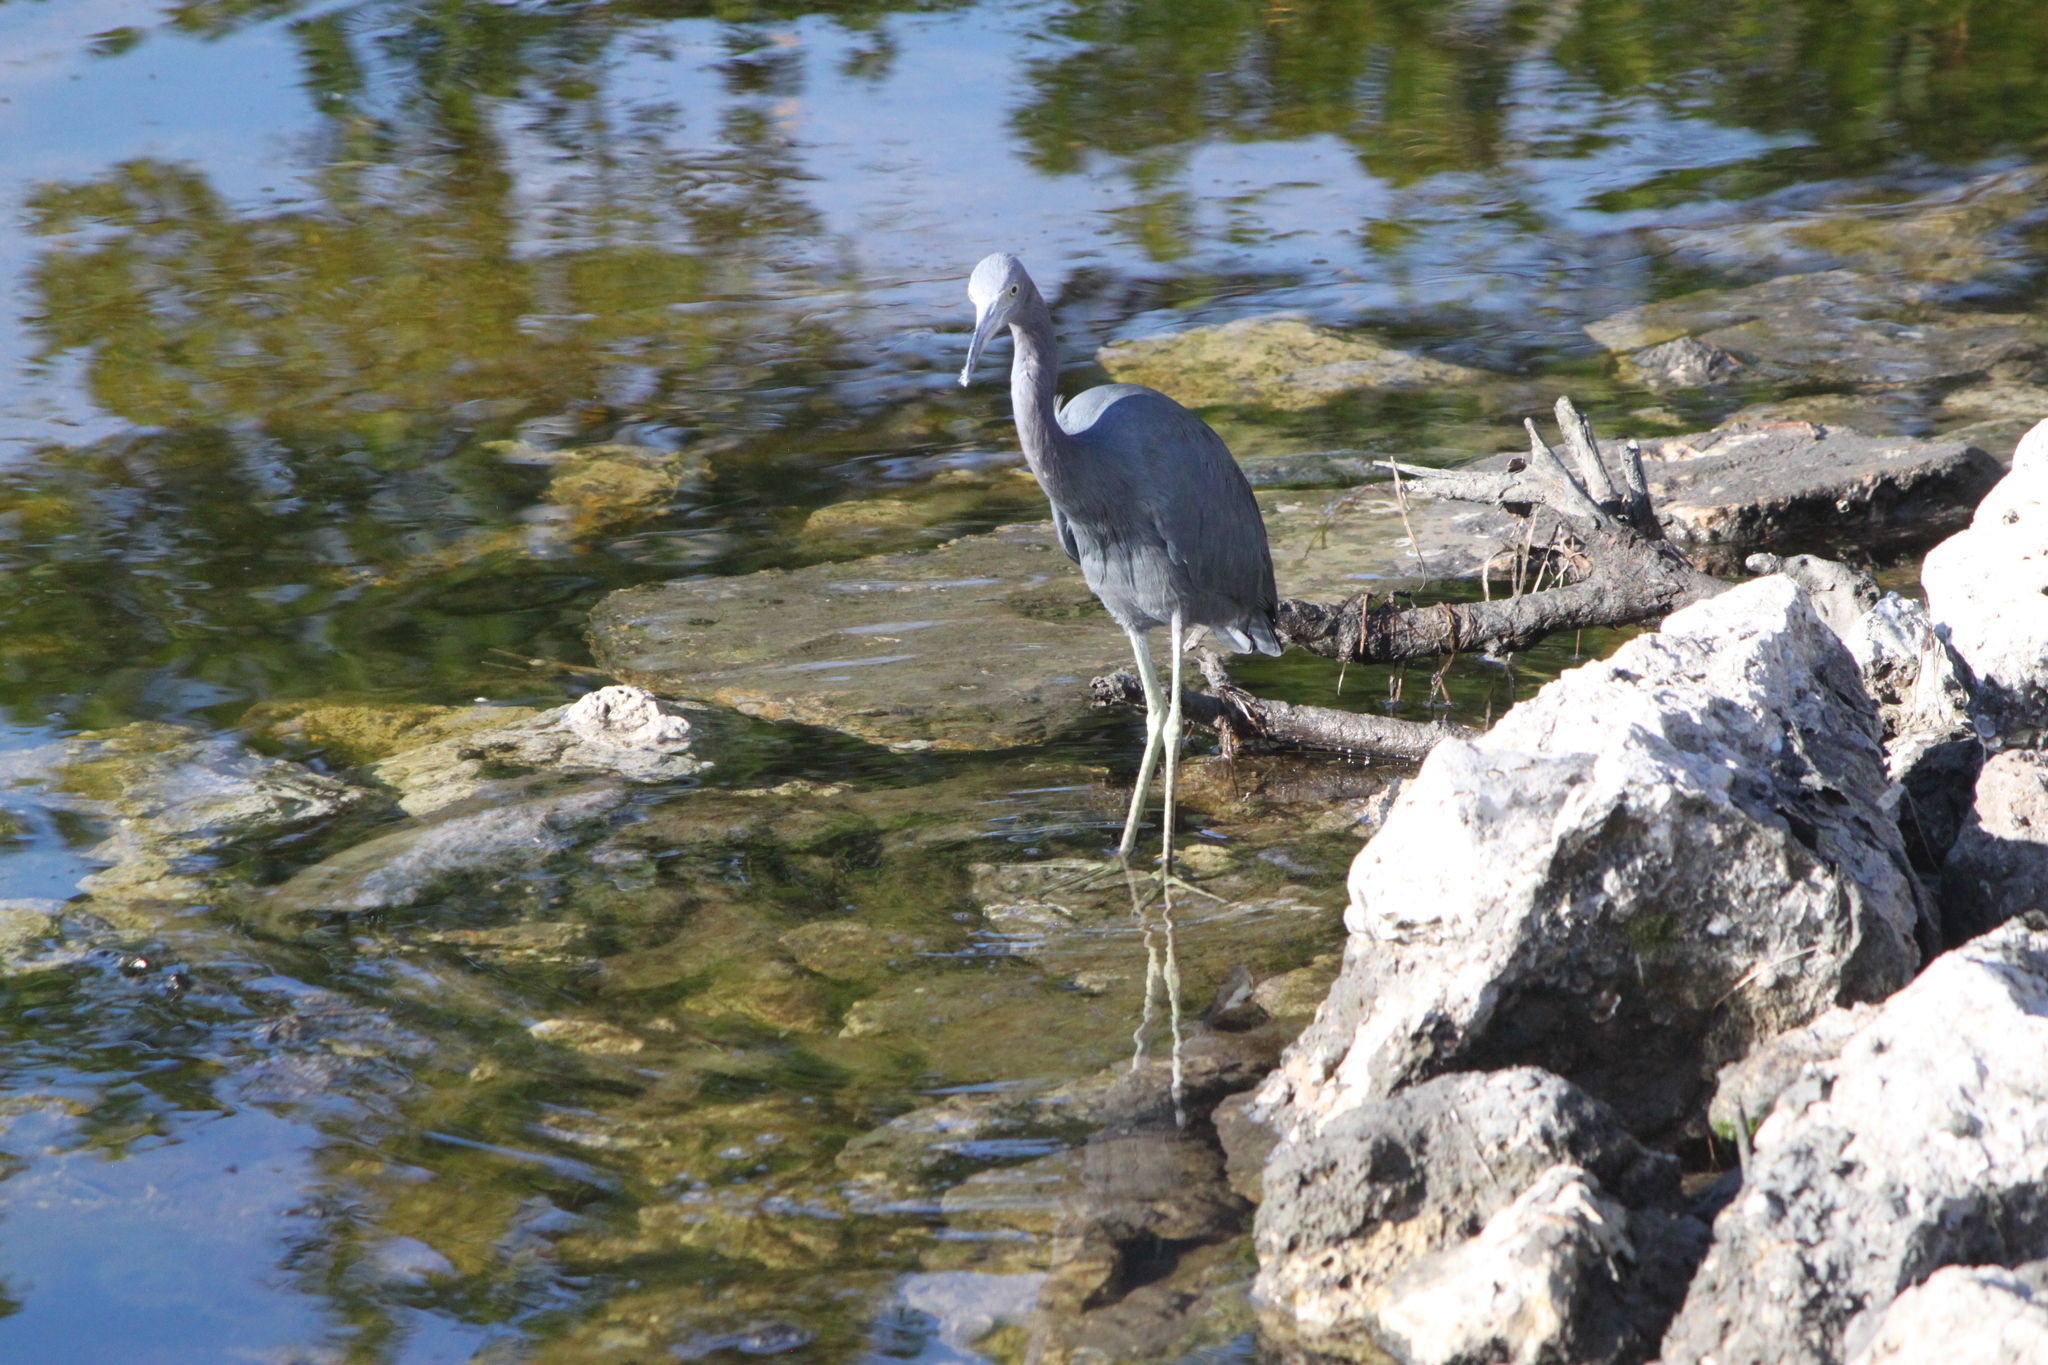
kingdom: Animalia
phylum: Chordata
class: Aves
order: Pelecaniformes
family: Ardeidae
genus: Egretta
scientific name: Egretta caerulea
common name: Little blue heron
